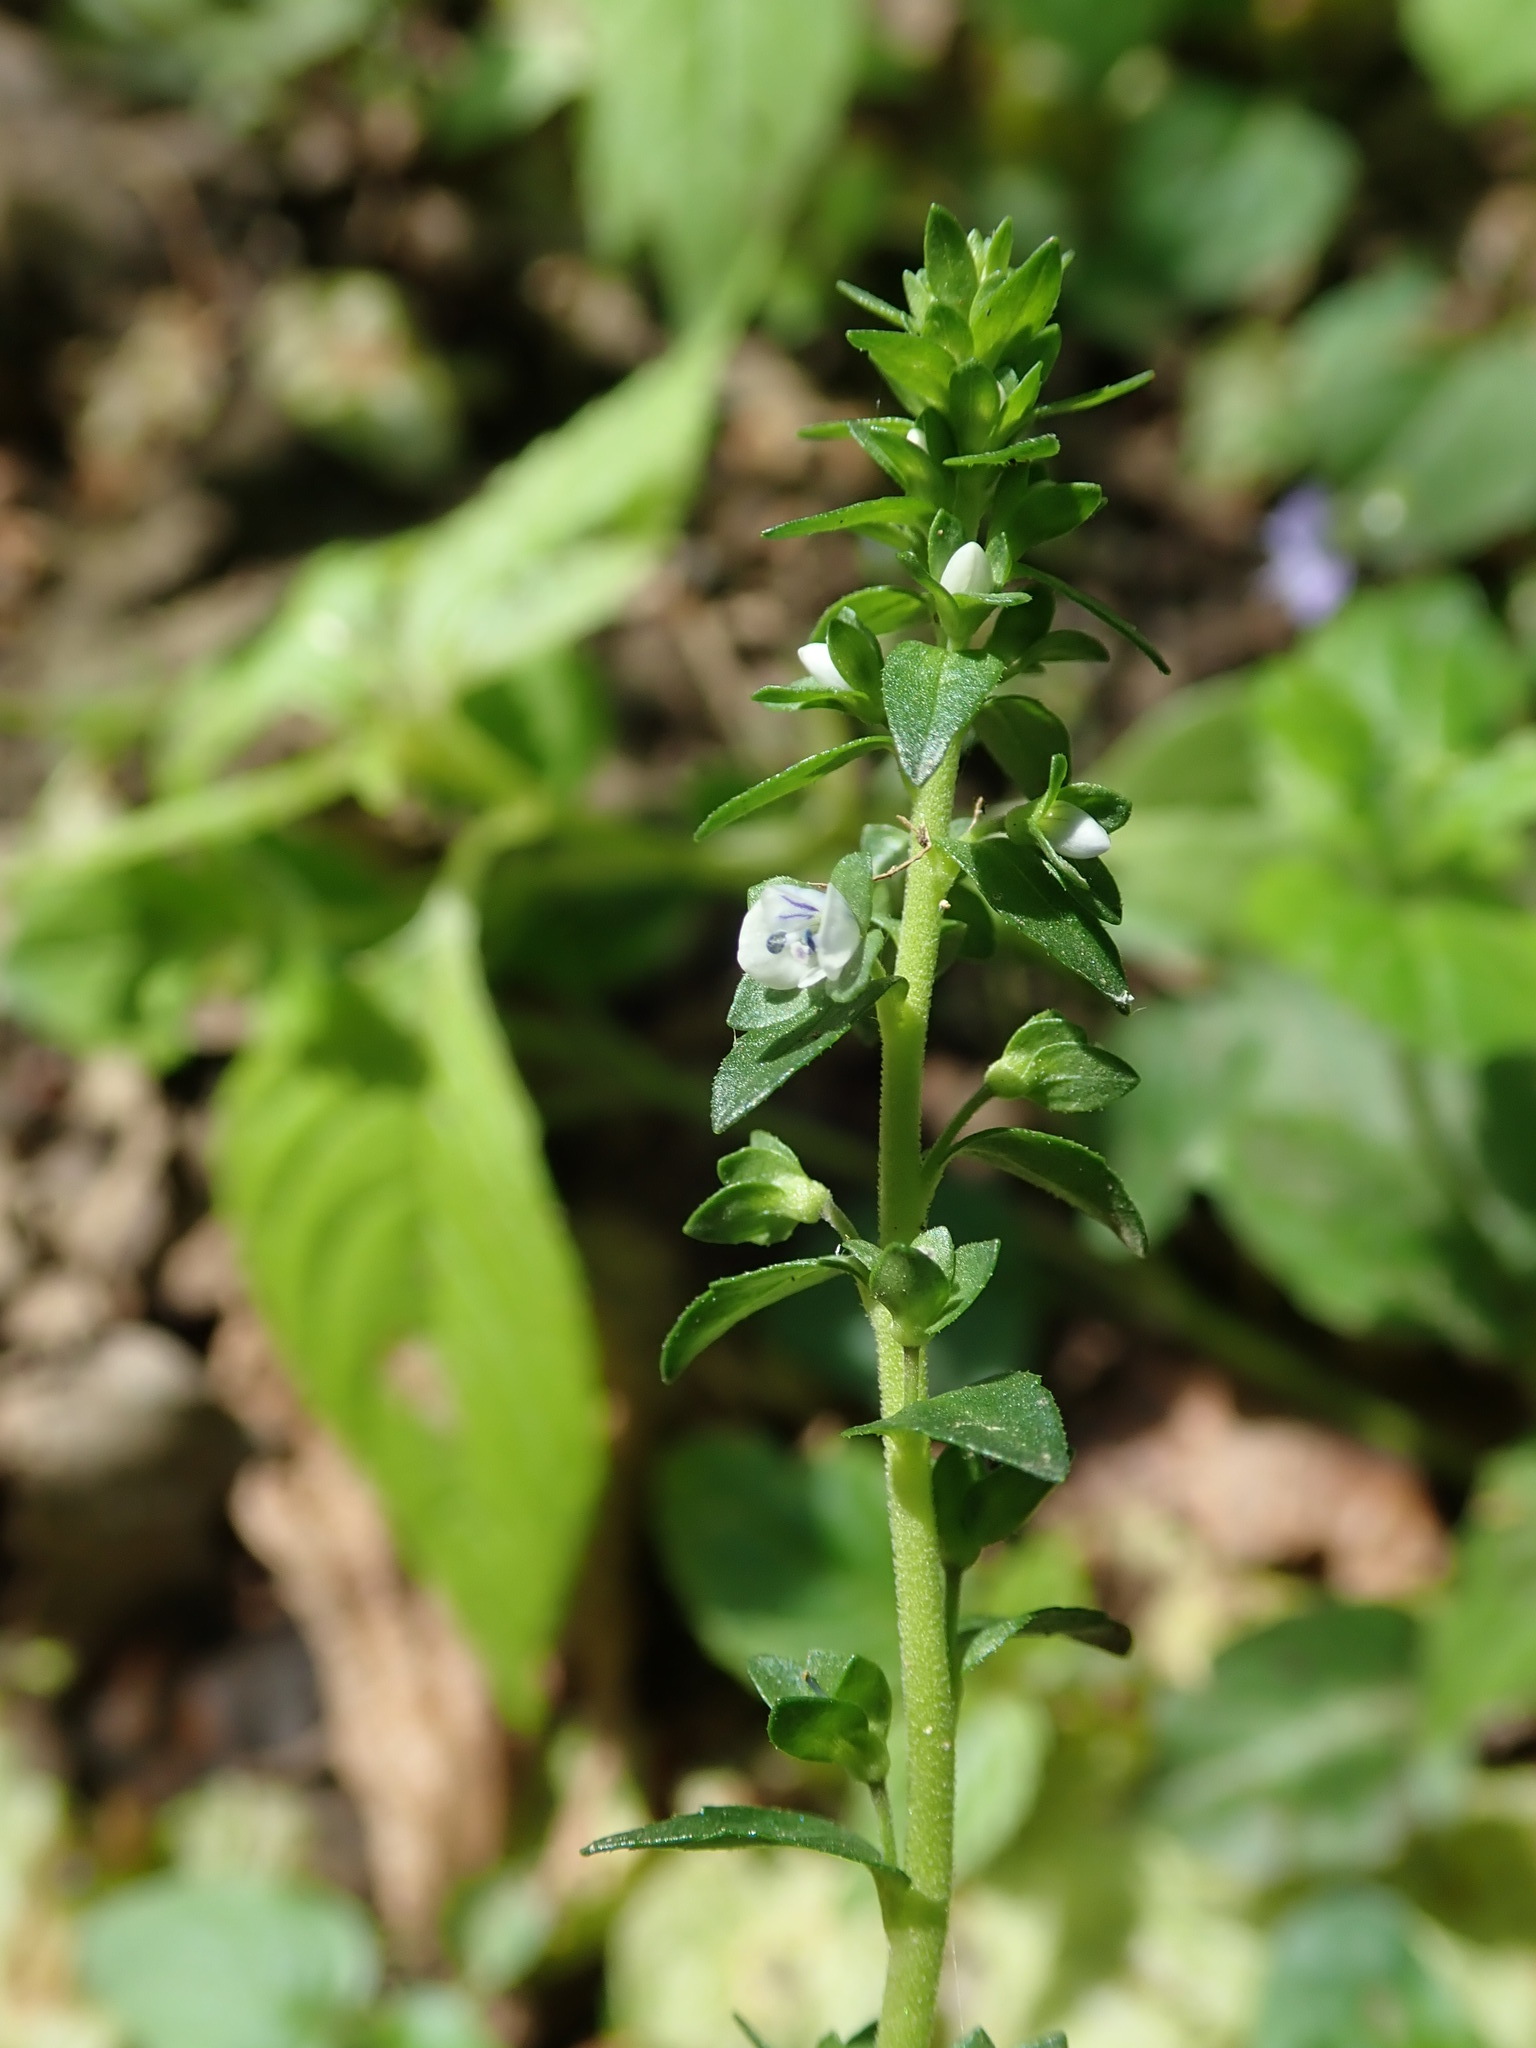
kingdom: Plantae
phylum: Tracheophyta
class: Magnoliopsida
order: Lamiales
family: Plantaginaceae
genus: Veronica
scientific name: Veronica serpyllifolia
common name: Thyme-leaved speedwell
